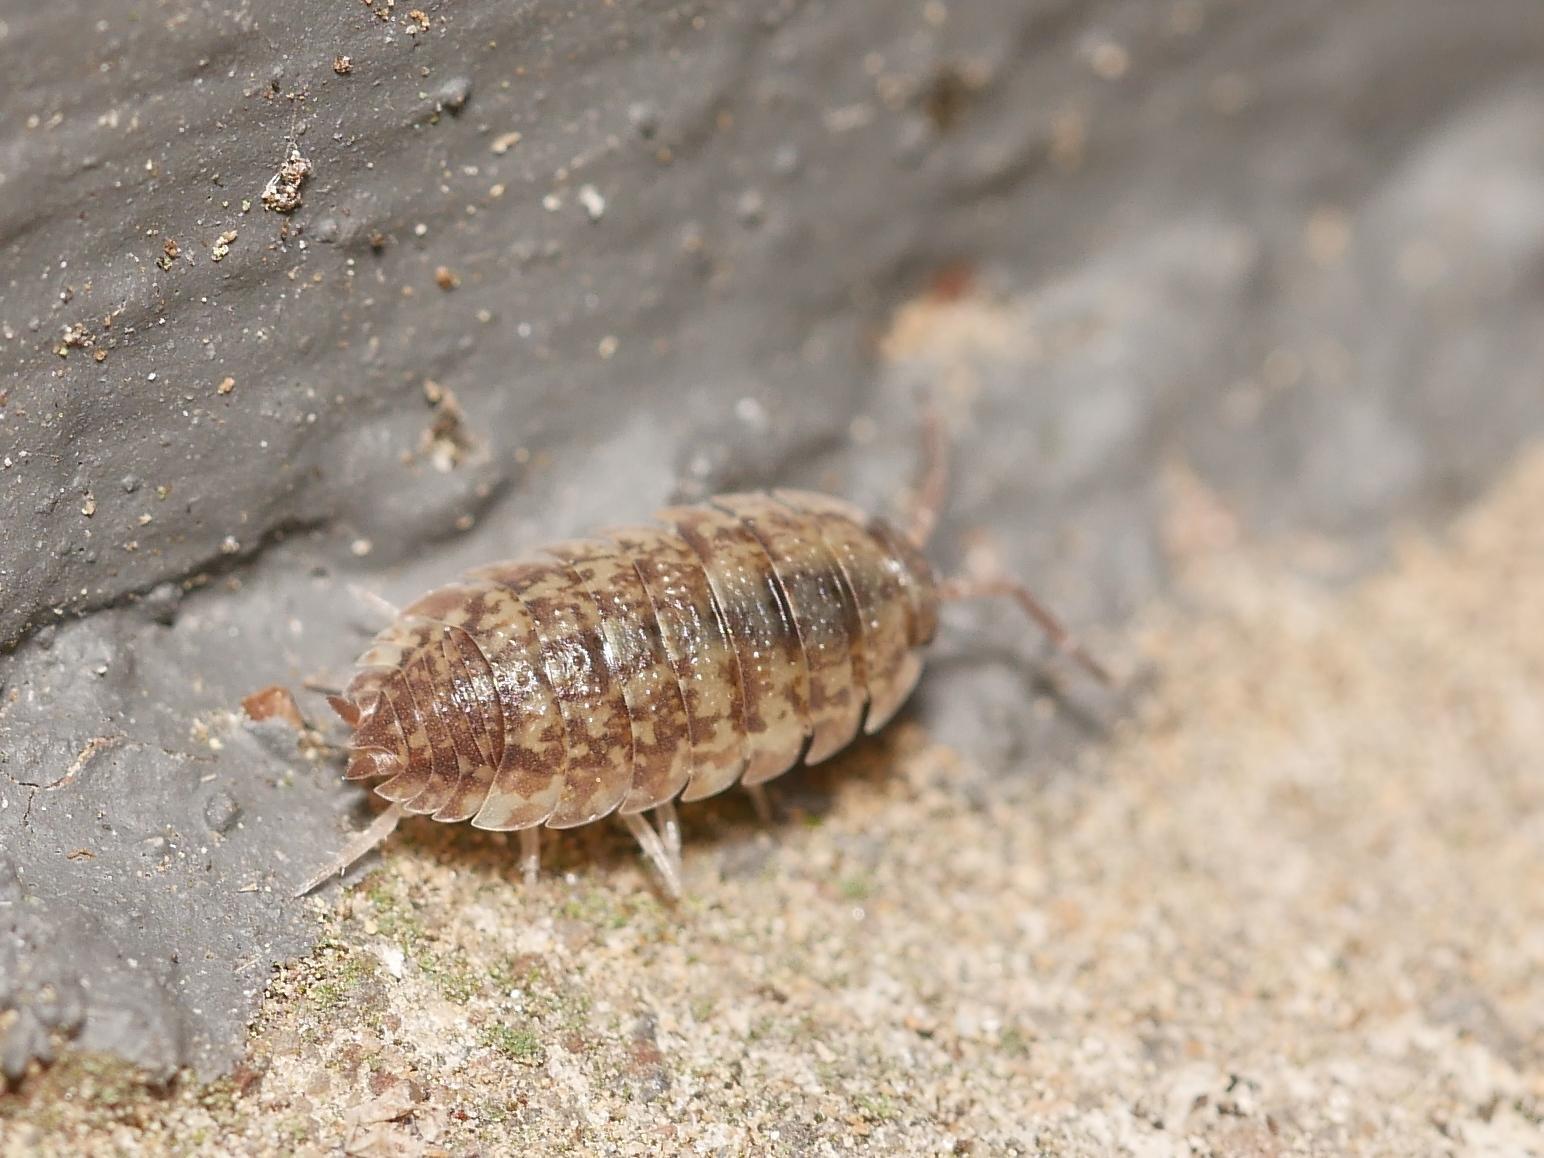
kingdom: Animalia
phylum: Arthropoda
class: Malacostraca
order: Isopoda
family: Porcellionidae
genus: Porcellio
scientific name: Porcellio scaber
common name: Common rough woodlouse
